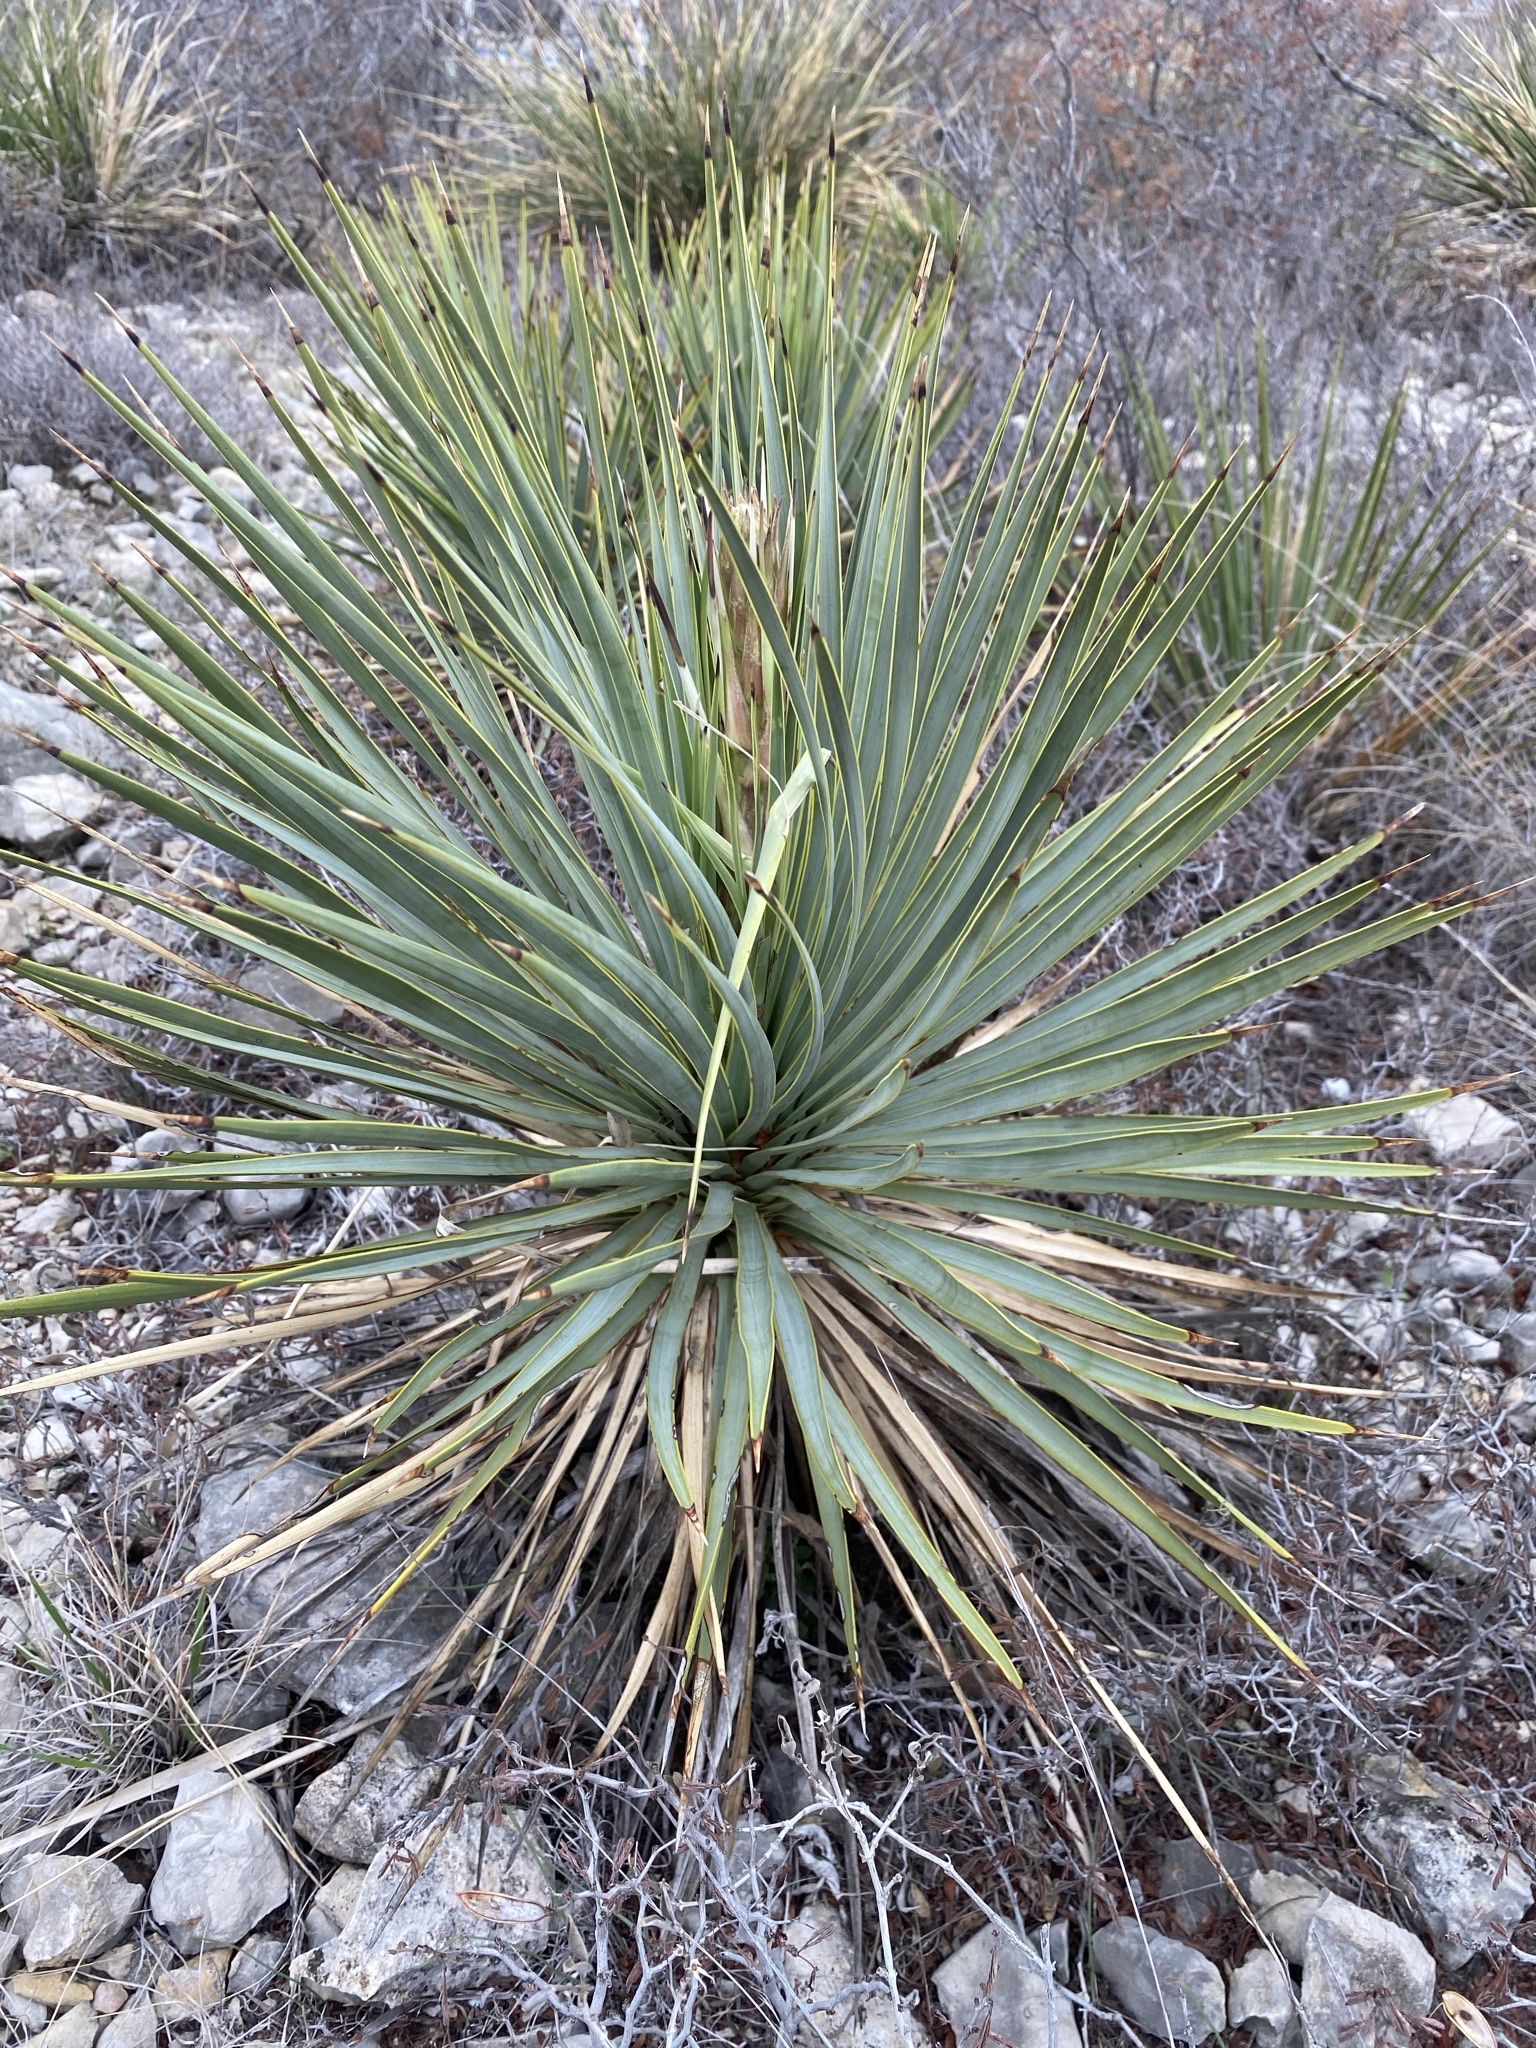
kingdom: Plantae
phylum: Tracheophyta
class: Liliopsida
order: Asparagales
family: Asparagaceae
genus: Yucca
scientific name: Yucca thompsoniana
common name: Trans-pecos yucca
